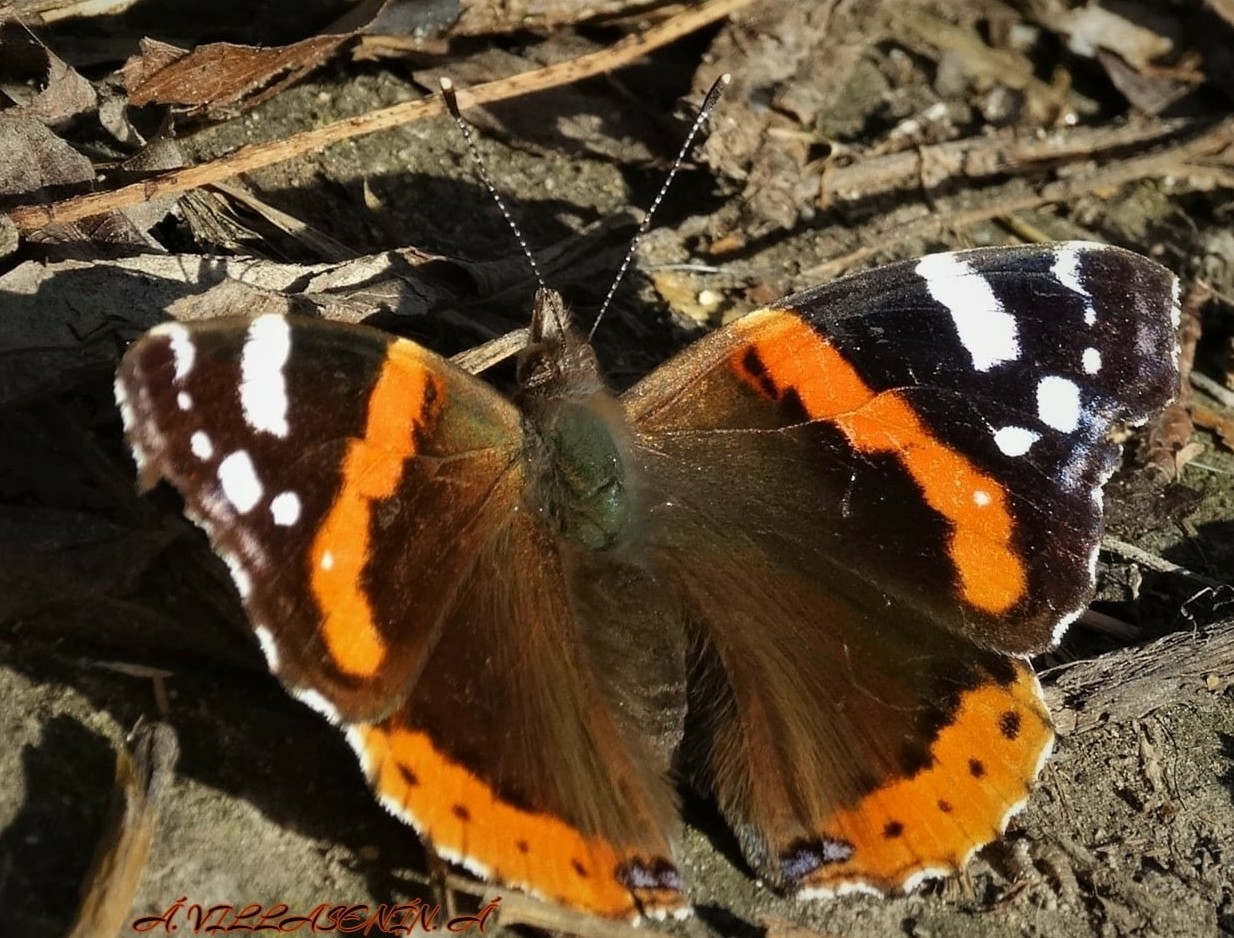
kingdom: Animalia
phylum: Arthropoda
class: Insecta
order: Lepidoptera
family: Nymphalidae
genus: Vanessa
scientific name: Vanessa atalanta
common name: Red admiral
